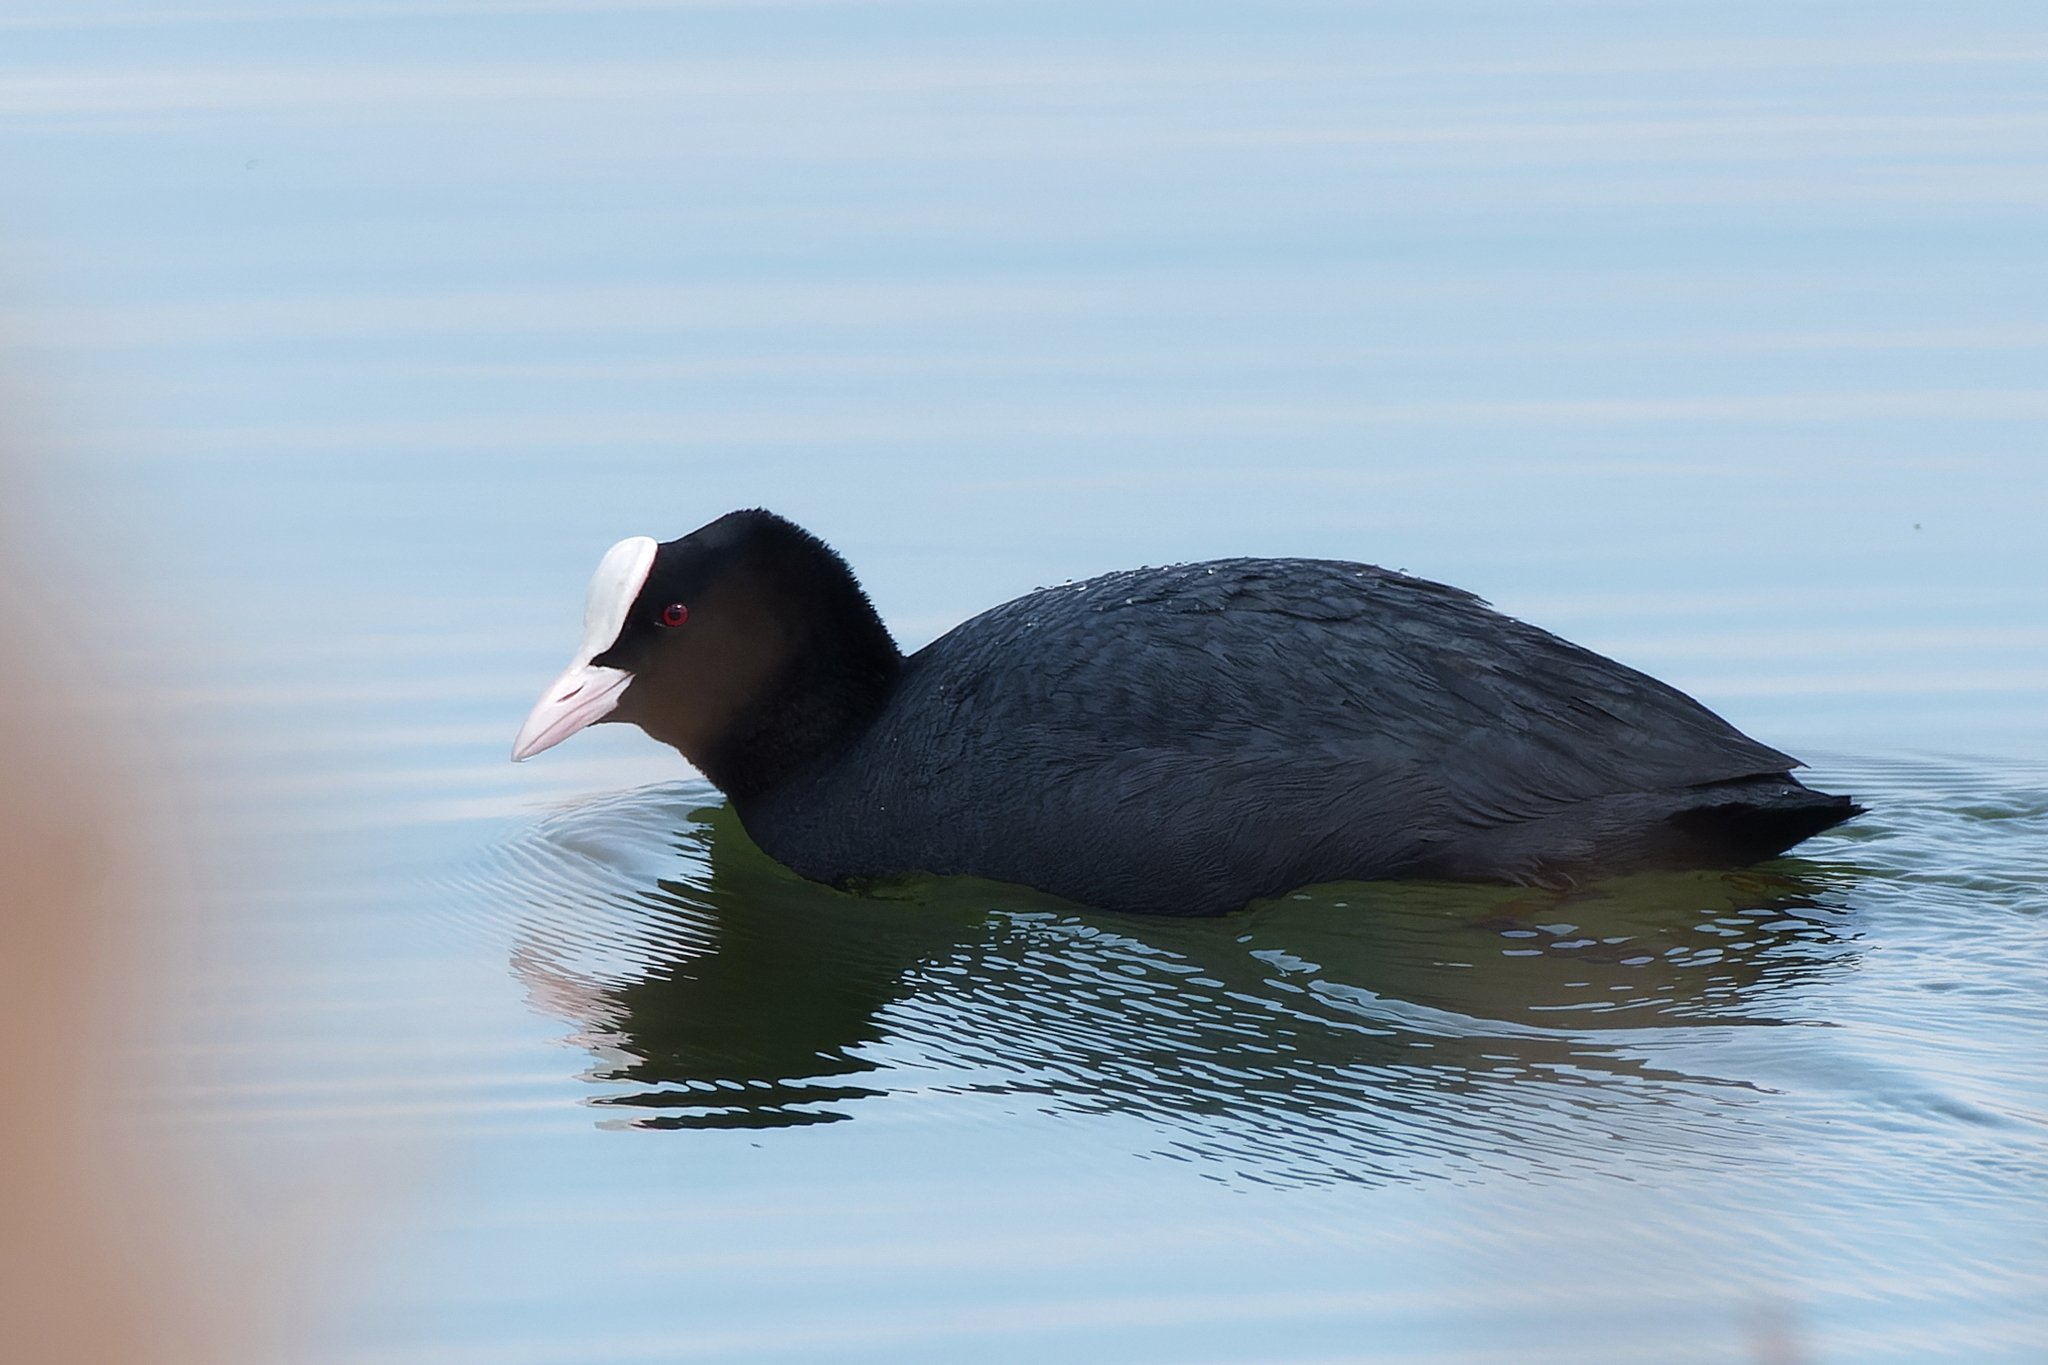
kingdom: Animalia
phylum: Chordata
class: Aves
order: Gruiformes
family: Rallidae
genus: Fulica
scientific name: Fulica atra
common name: Eurasian coot
